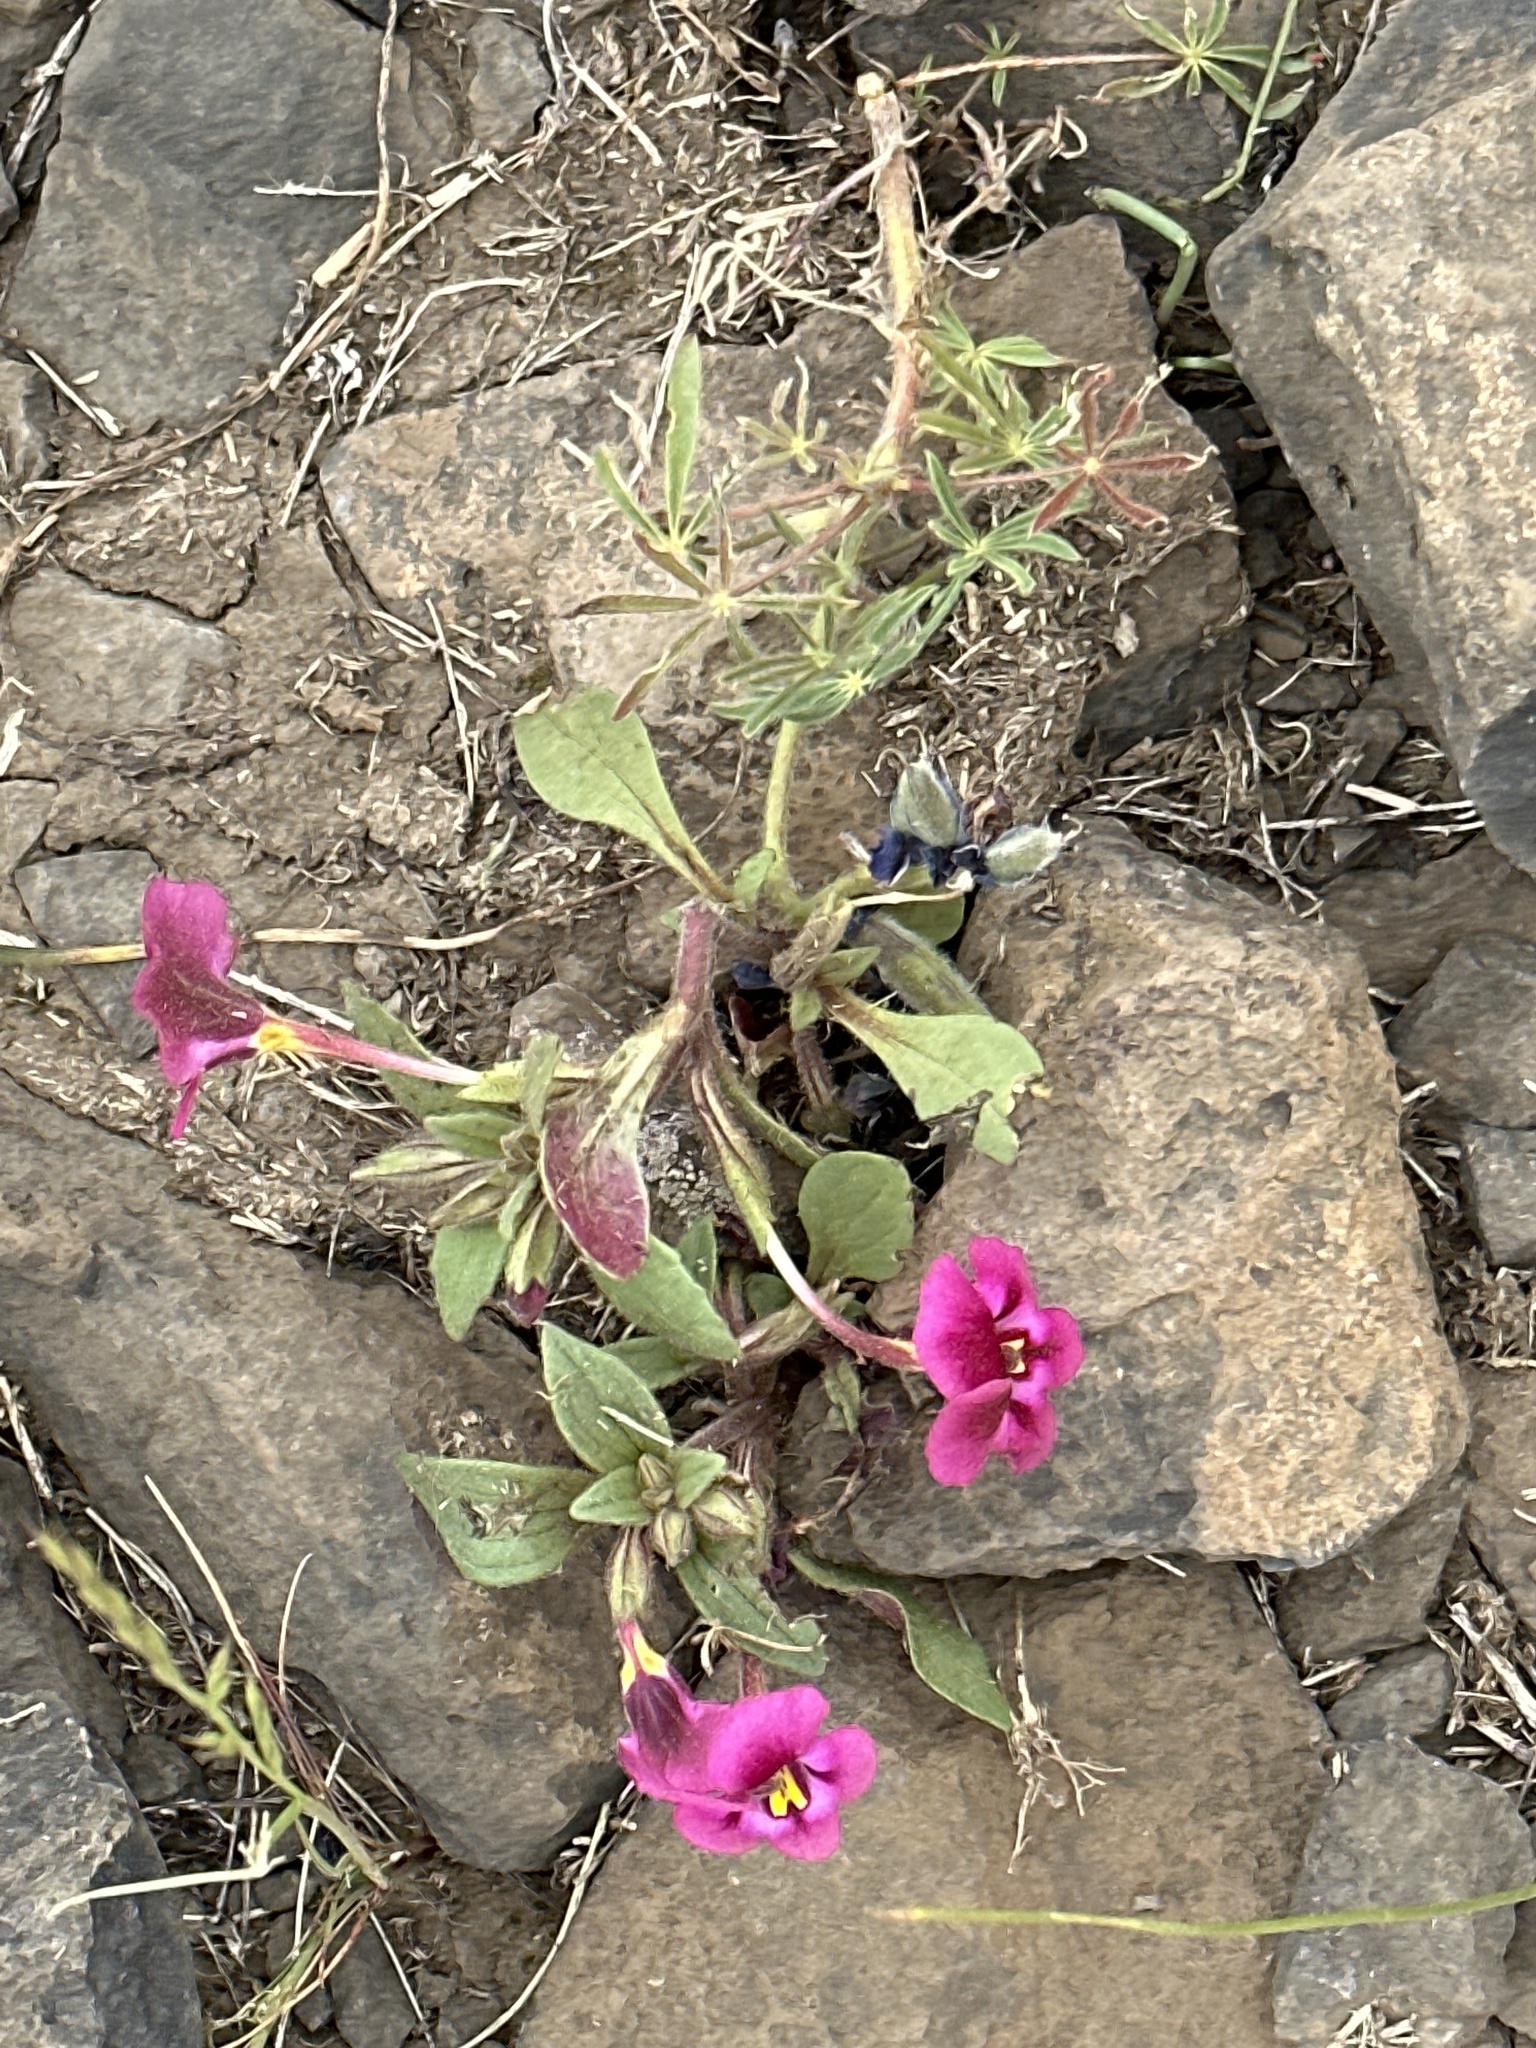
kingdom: Plantae
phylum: Tracheophyta
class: Magnoliopsida
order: Lamiales
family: Phrymaceae
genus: Diplacus
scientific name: Diplacus kelloggii
